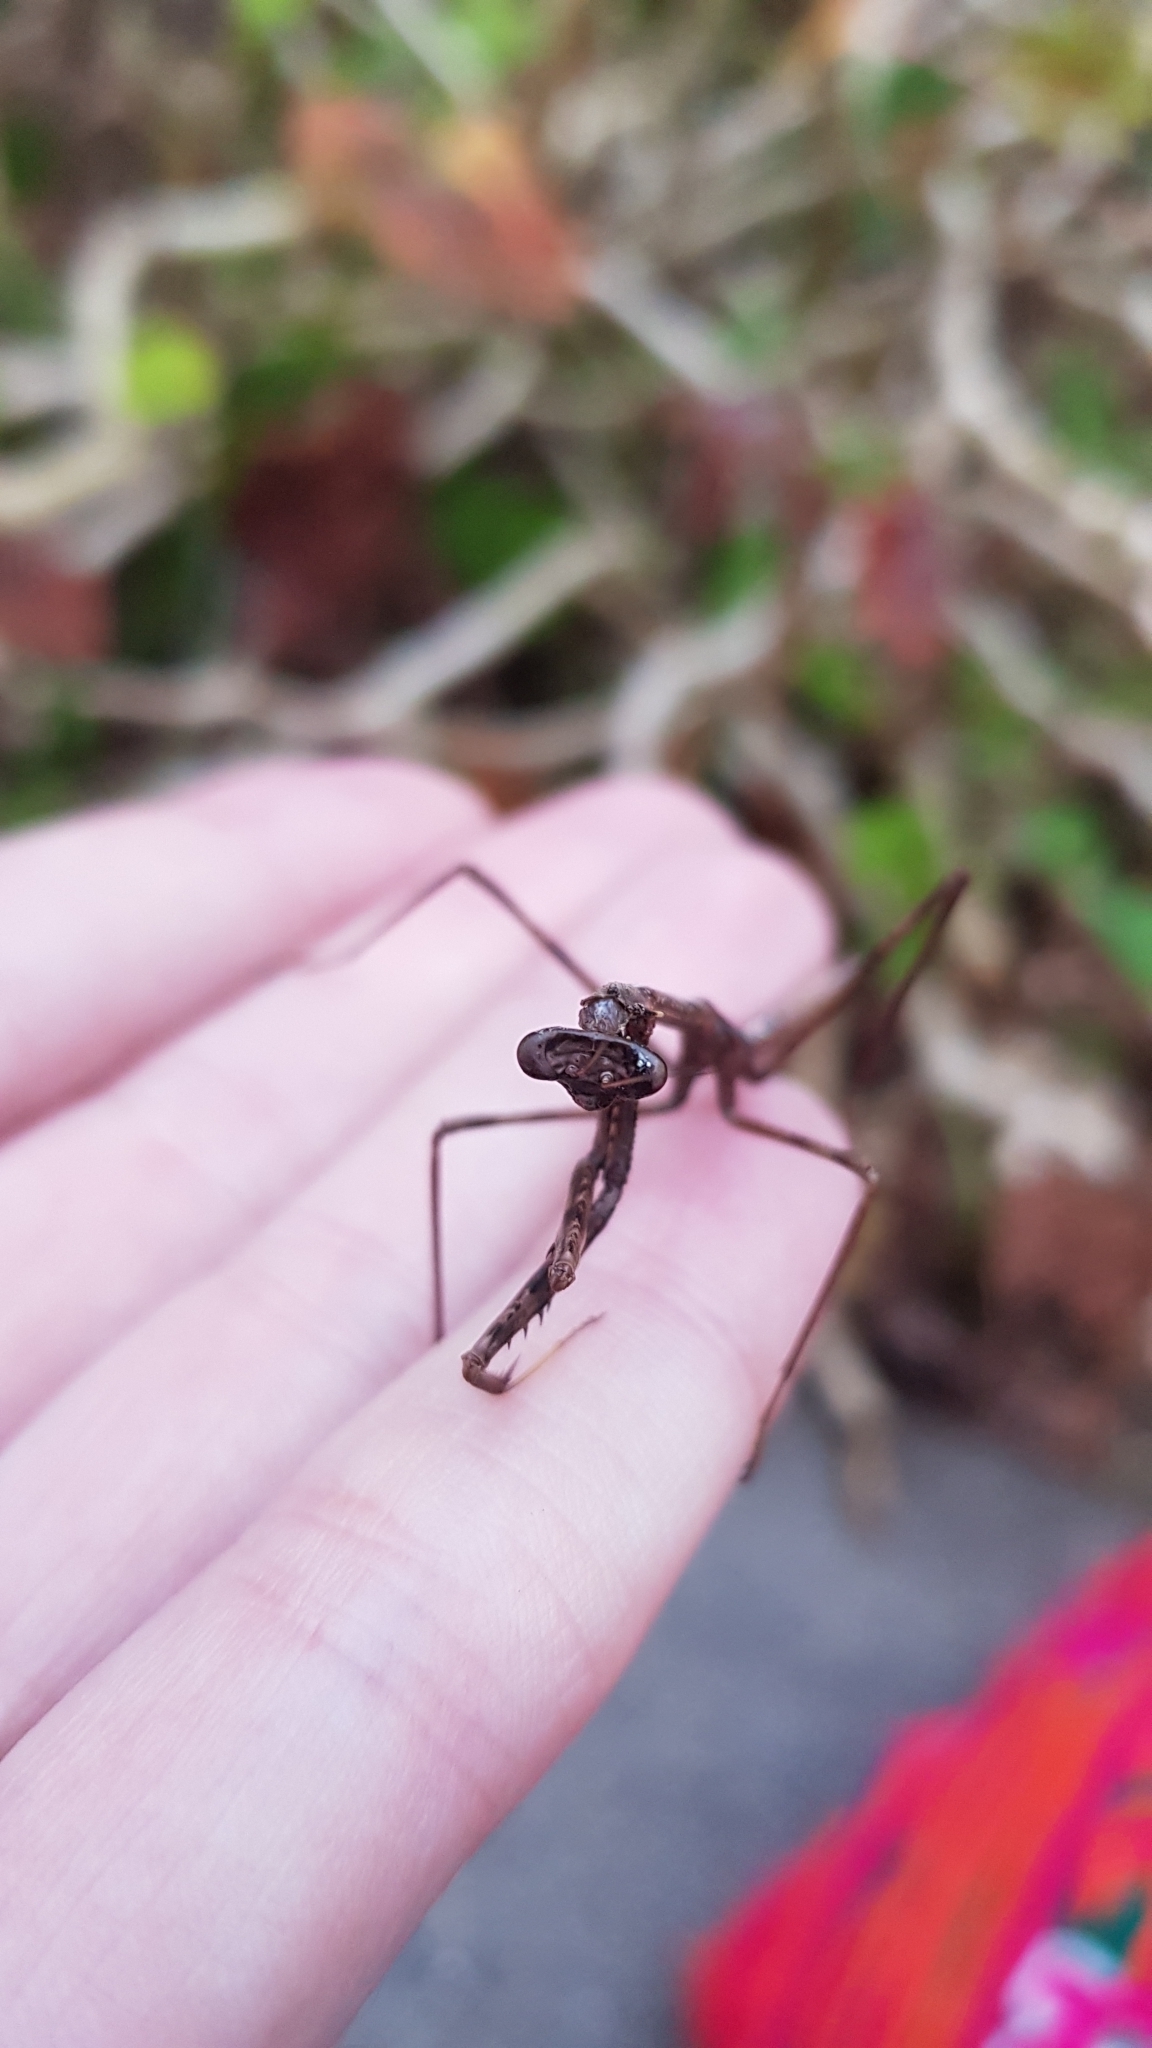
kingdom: Animalia
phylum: Arthropoda
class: Insecta
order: Mantodea
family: Mantidae
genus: Archimantis
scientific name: Archimantis latistyla
